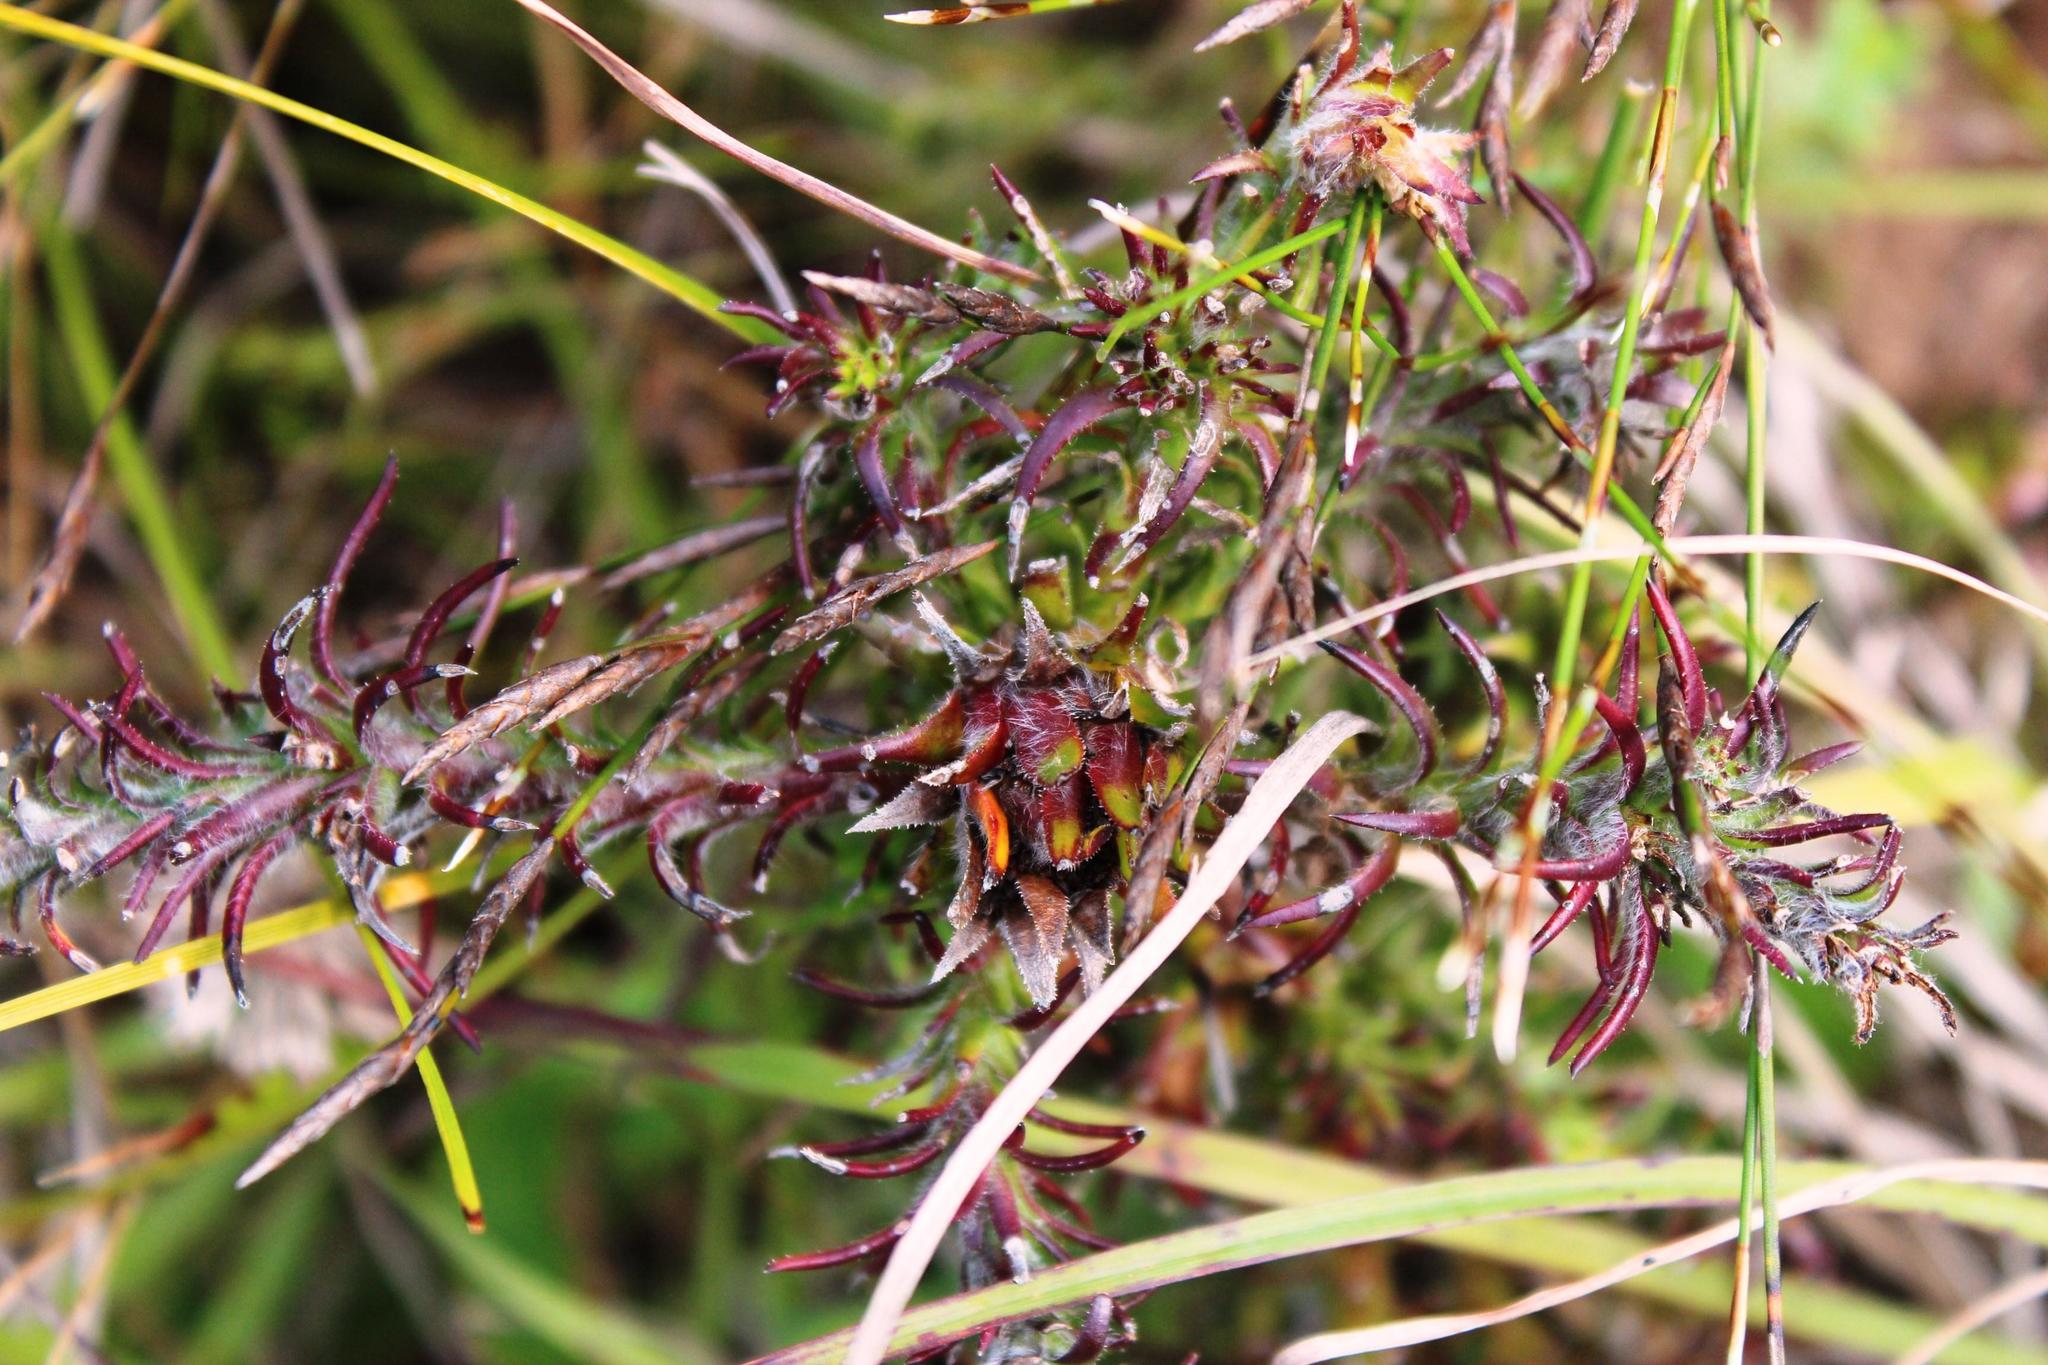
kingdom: Plantae
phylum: Tracheophyta
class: Magnoliopsida
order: Asterales
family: Asteraceae
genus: Oedera
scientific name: Oedera capensis
